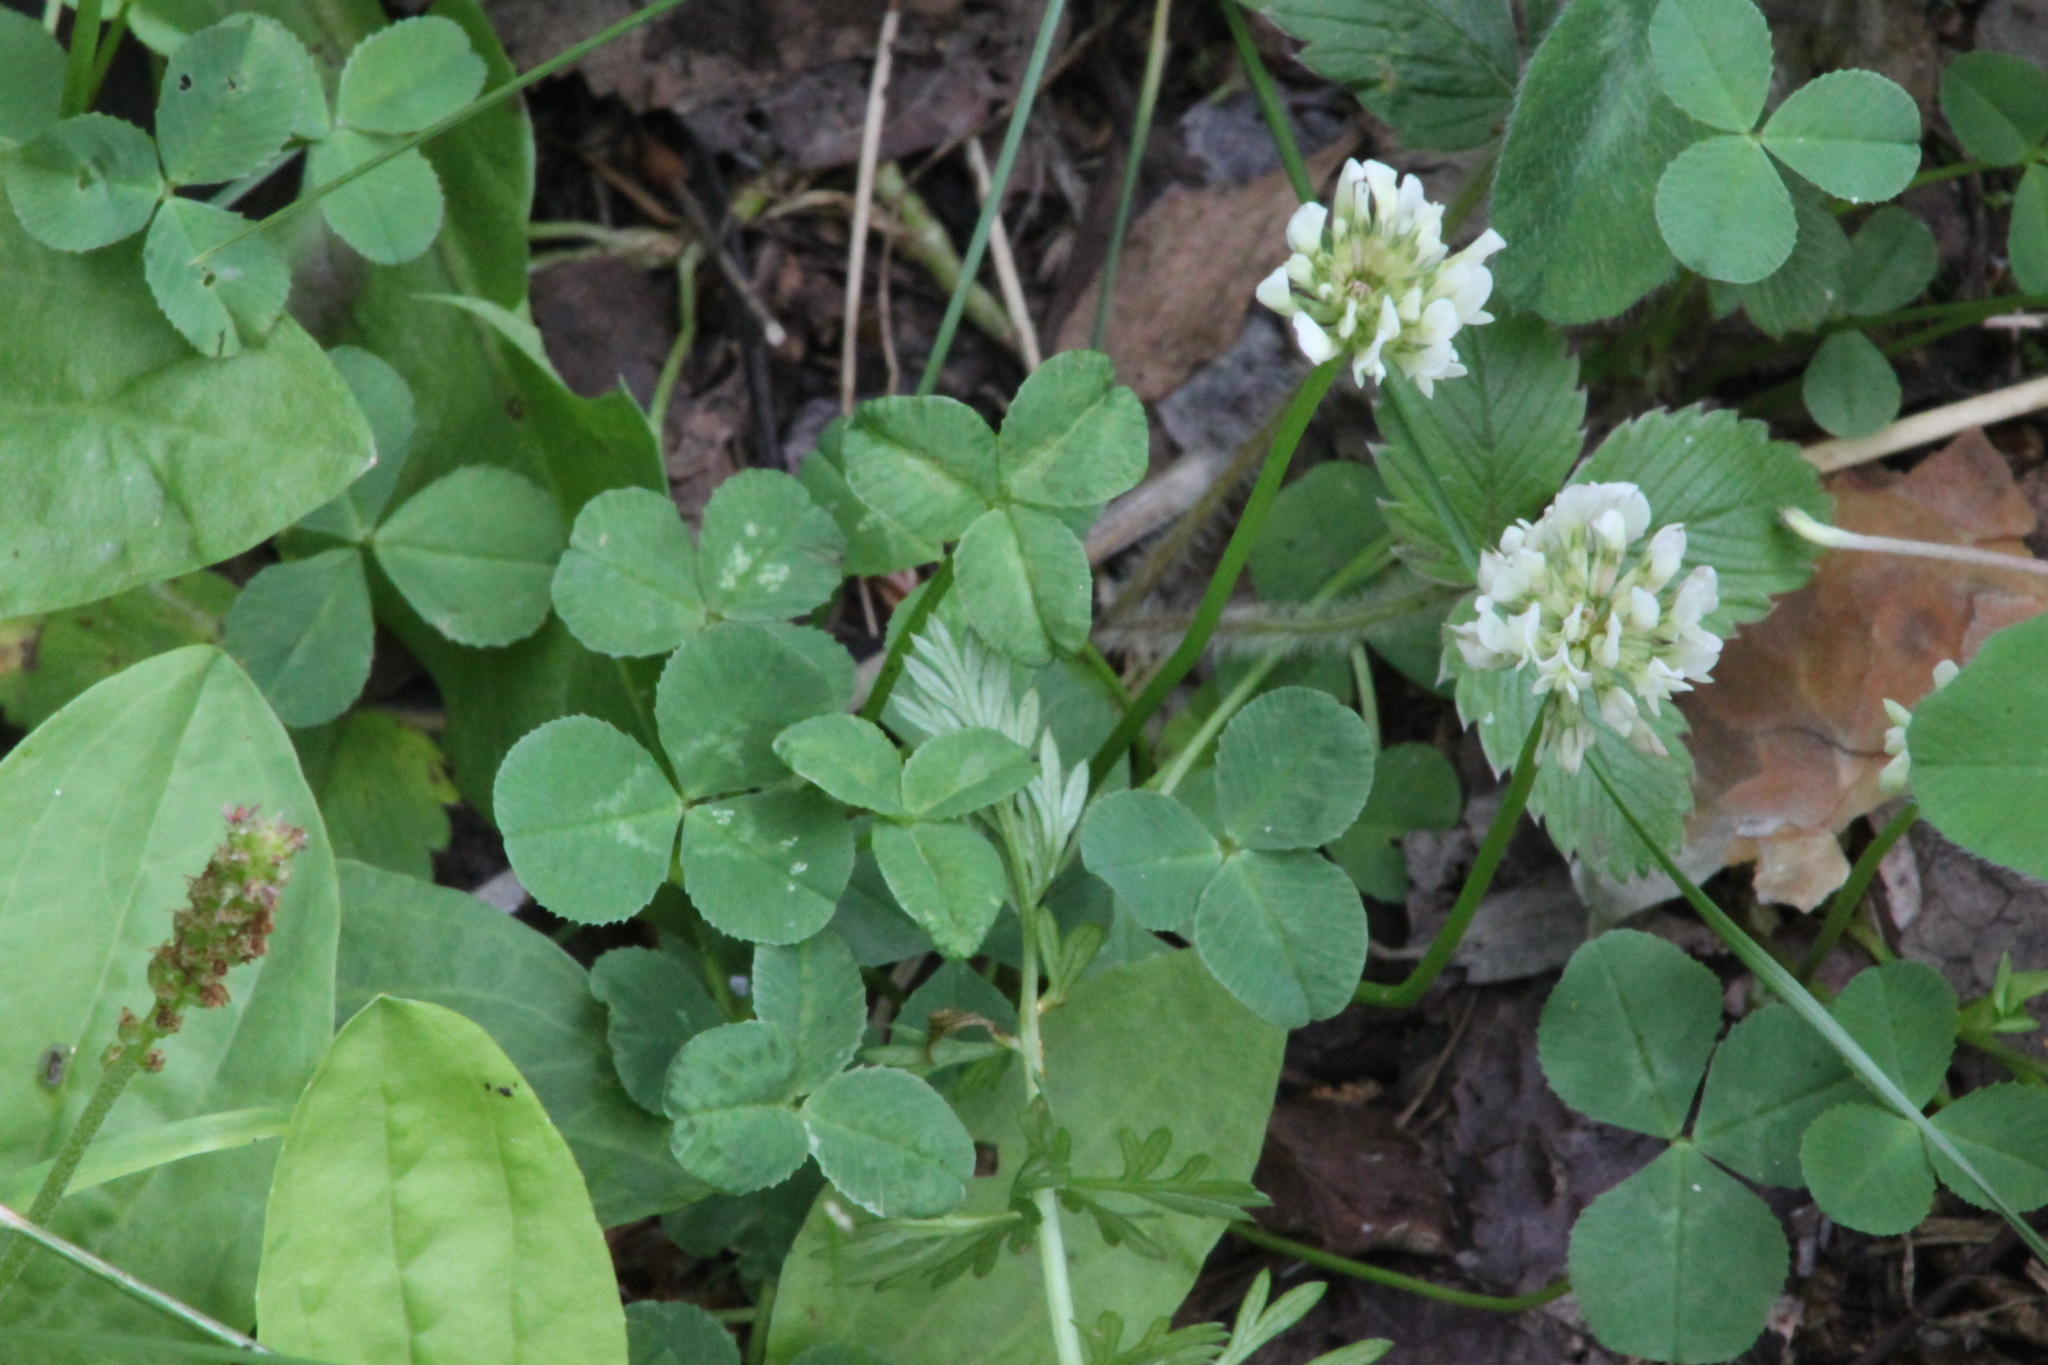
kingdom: Plantae
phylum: Tracheophyta
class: Magnoliopsida
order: Fabales
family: Fabaceae
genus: Trifolium
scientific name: Trifolium repens
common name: White clover
